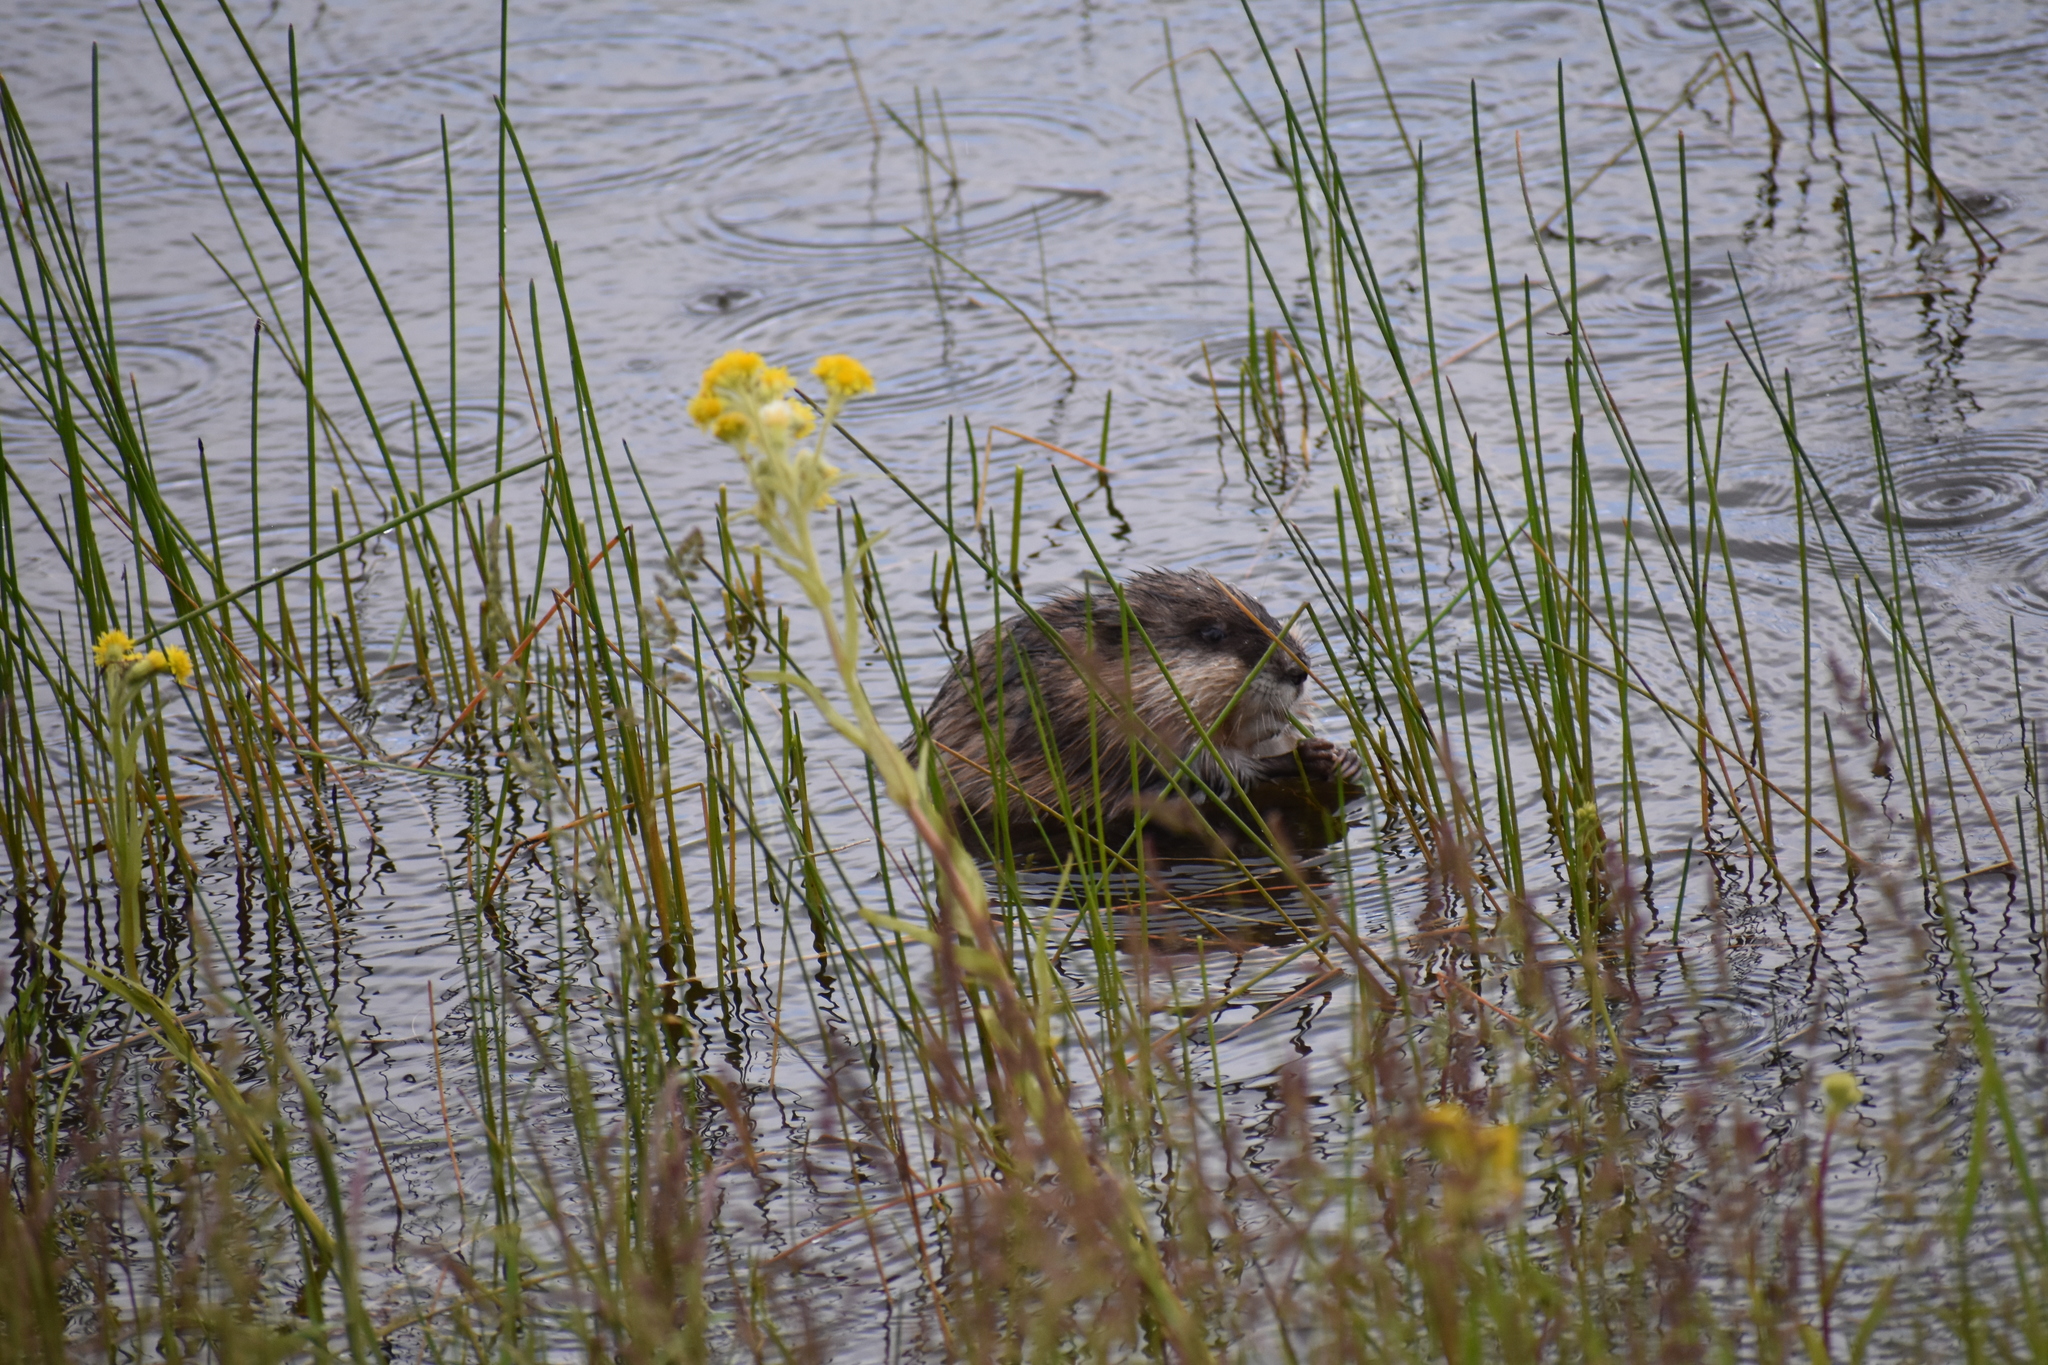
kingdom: Animalia
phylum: Chordata
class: Mammalia
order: Rodentia
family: Cricetidae
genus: Ondatra
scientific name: Ondatra zibethicus
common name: Muskrat
